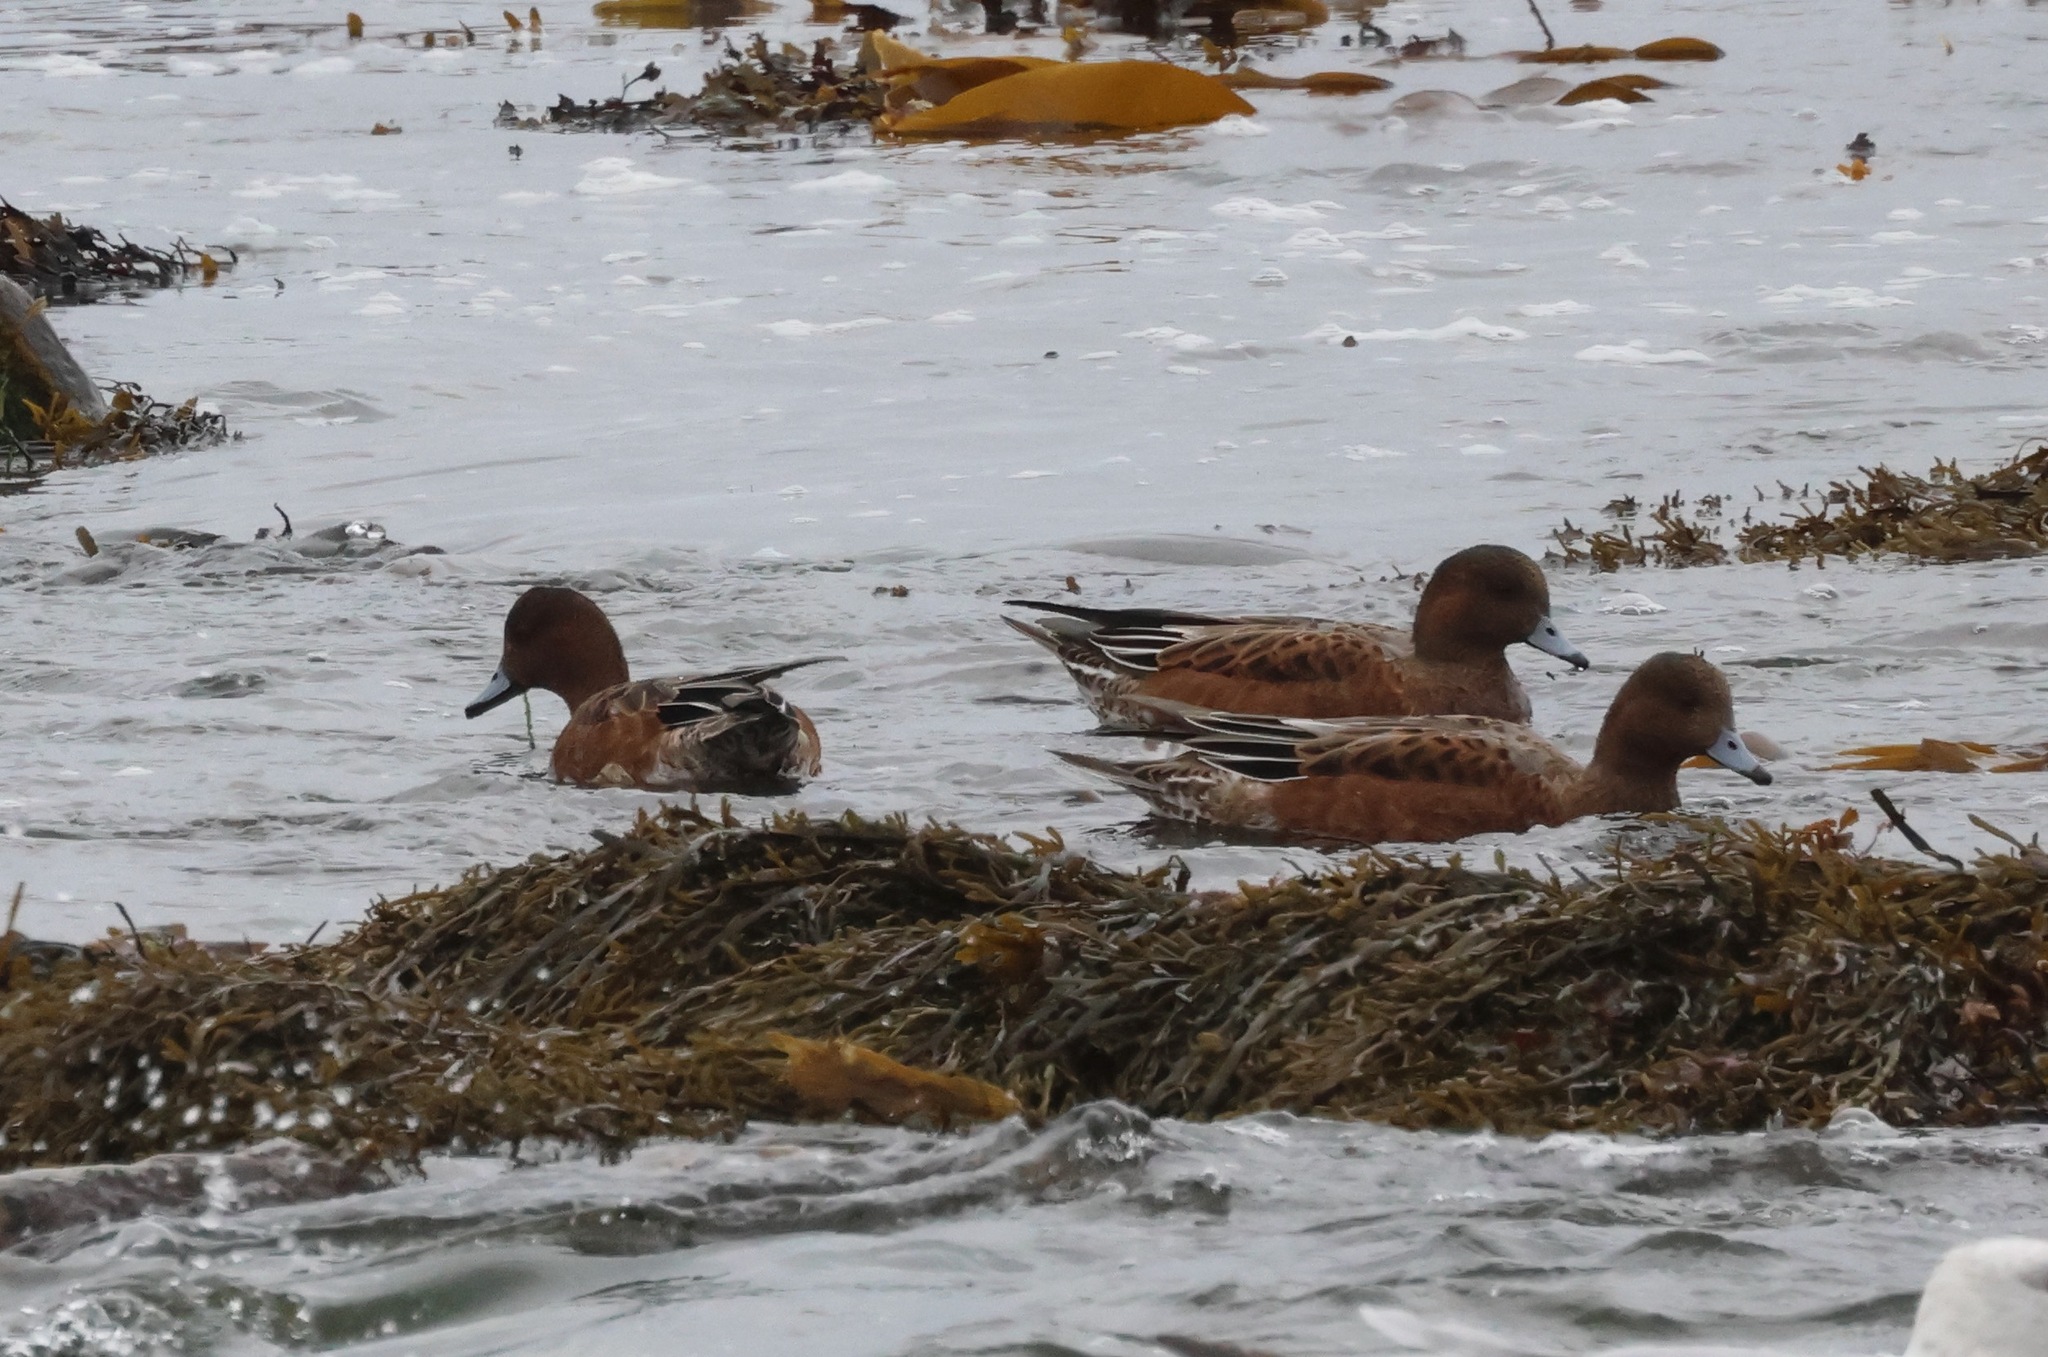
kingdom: Animalia
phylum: Chordata
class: Aves
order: Anseriformes
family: Anatidae
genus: Mareca
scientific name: Mareca penelope
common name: Eurasian wigeon
